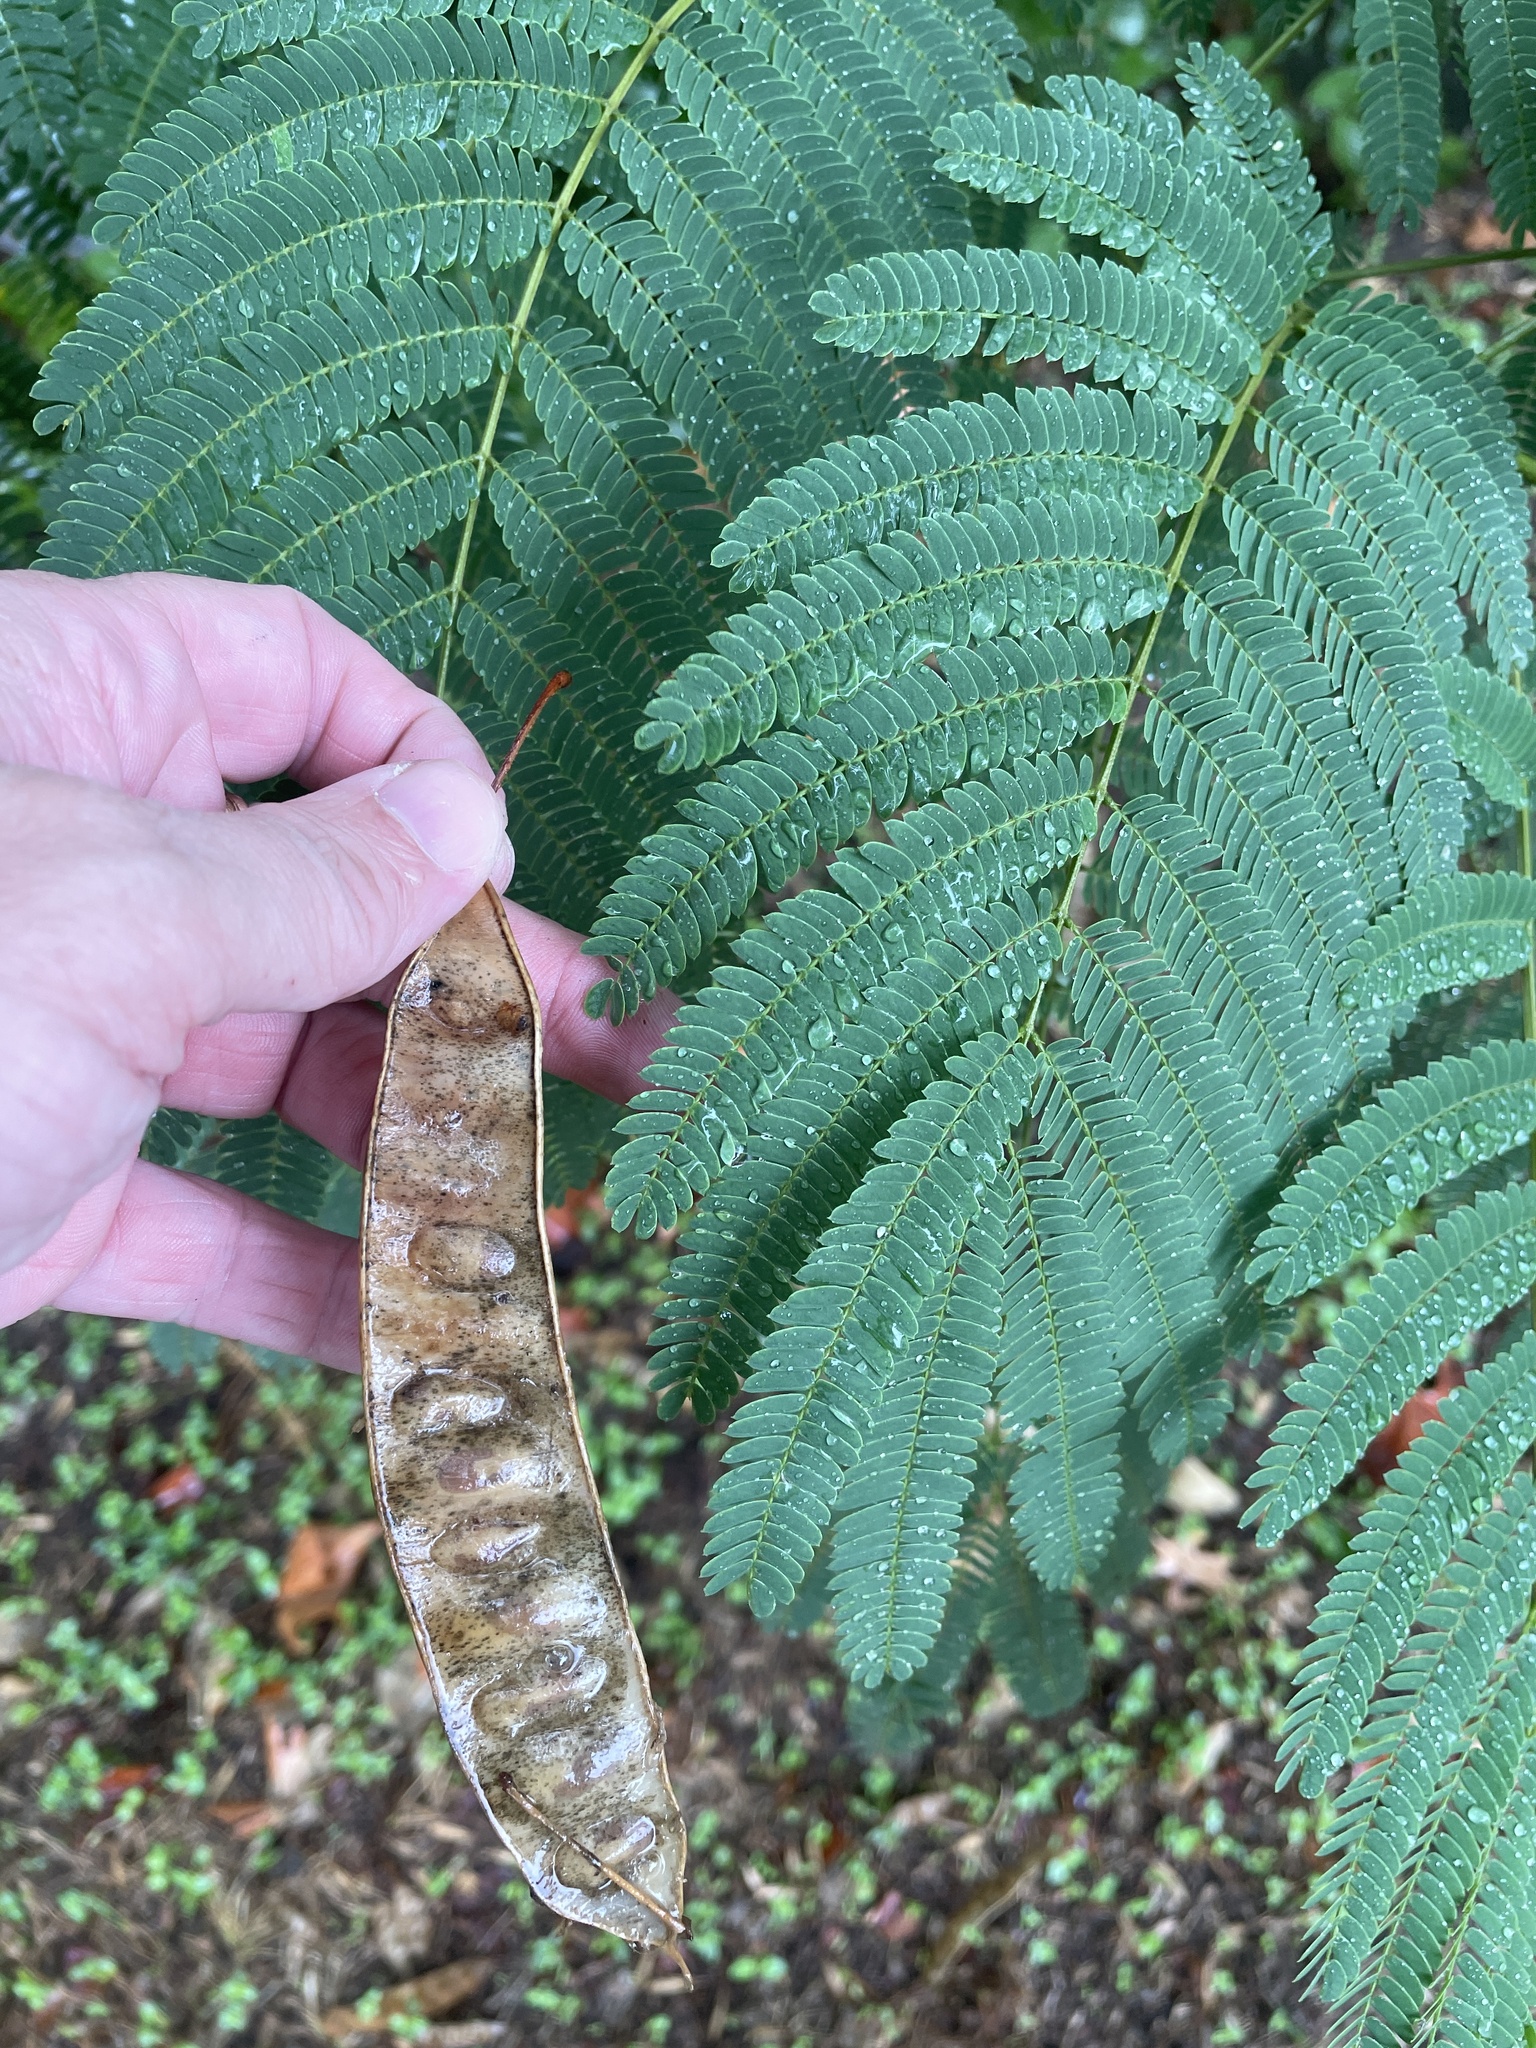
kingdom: Plantae
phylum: Tracheophyta
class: Magnoliopsida
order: Fabales
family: Fabaceae
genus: Albizia
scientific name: Albizia julibrissin
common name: Silktree
